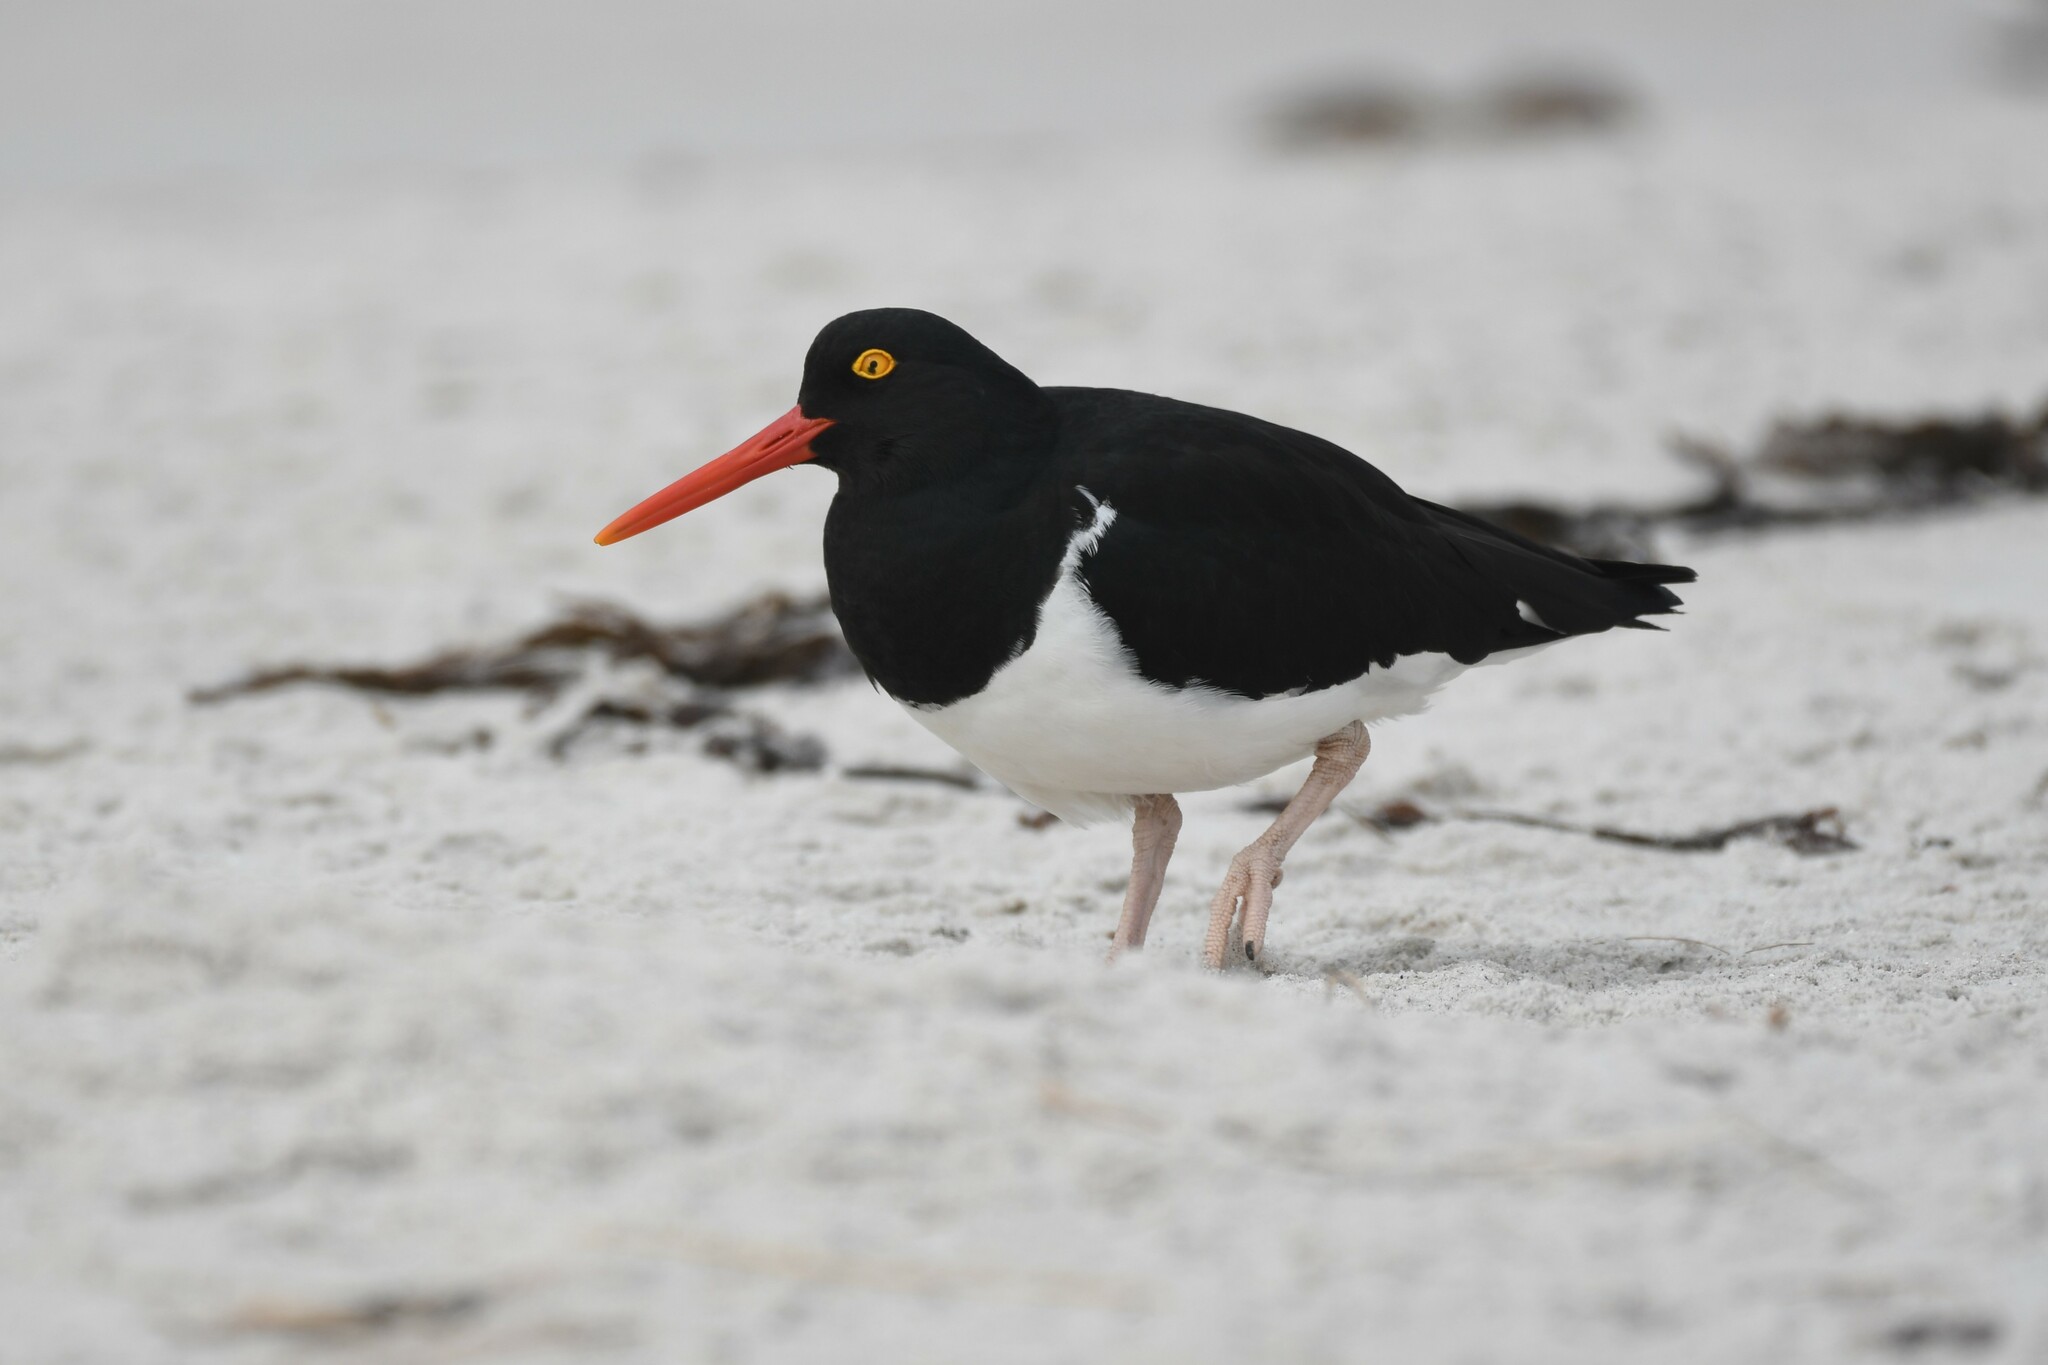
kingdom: Animalia
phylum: Chordata
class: Aves
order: Charadriiformes
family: Haematopodidae
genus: Haematopus
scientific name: Haematopus leucopodus
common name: Magellanic oystercatcher
